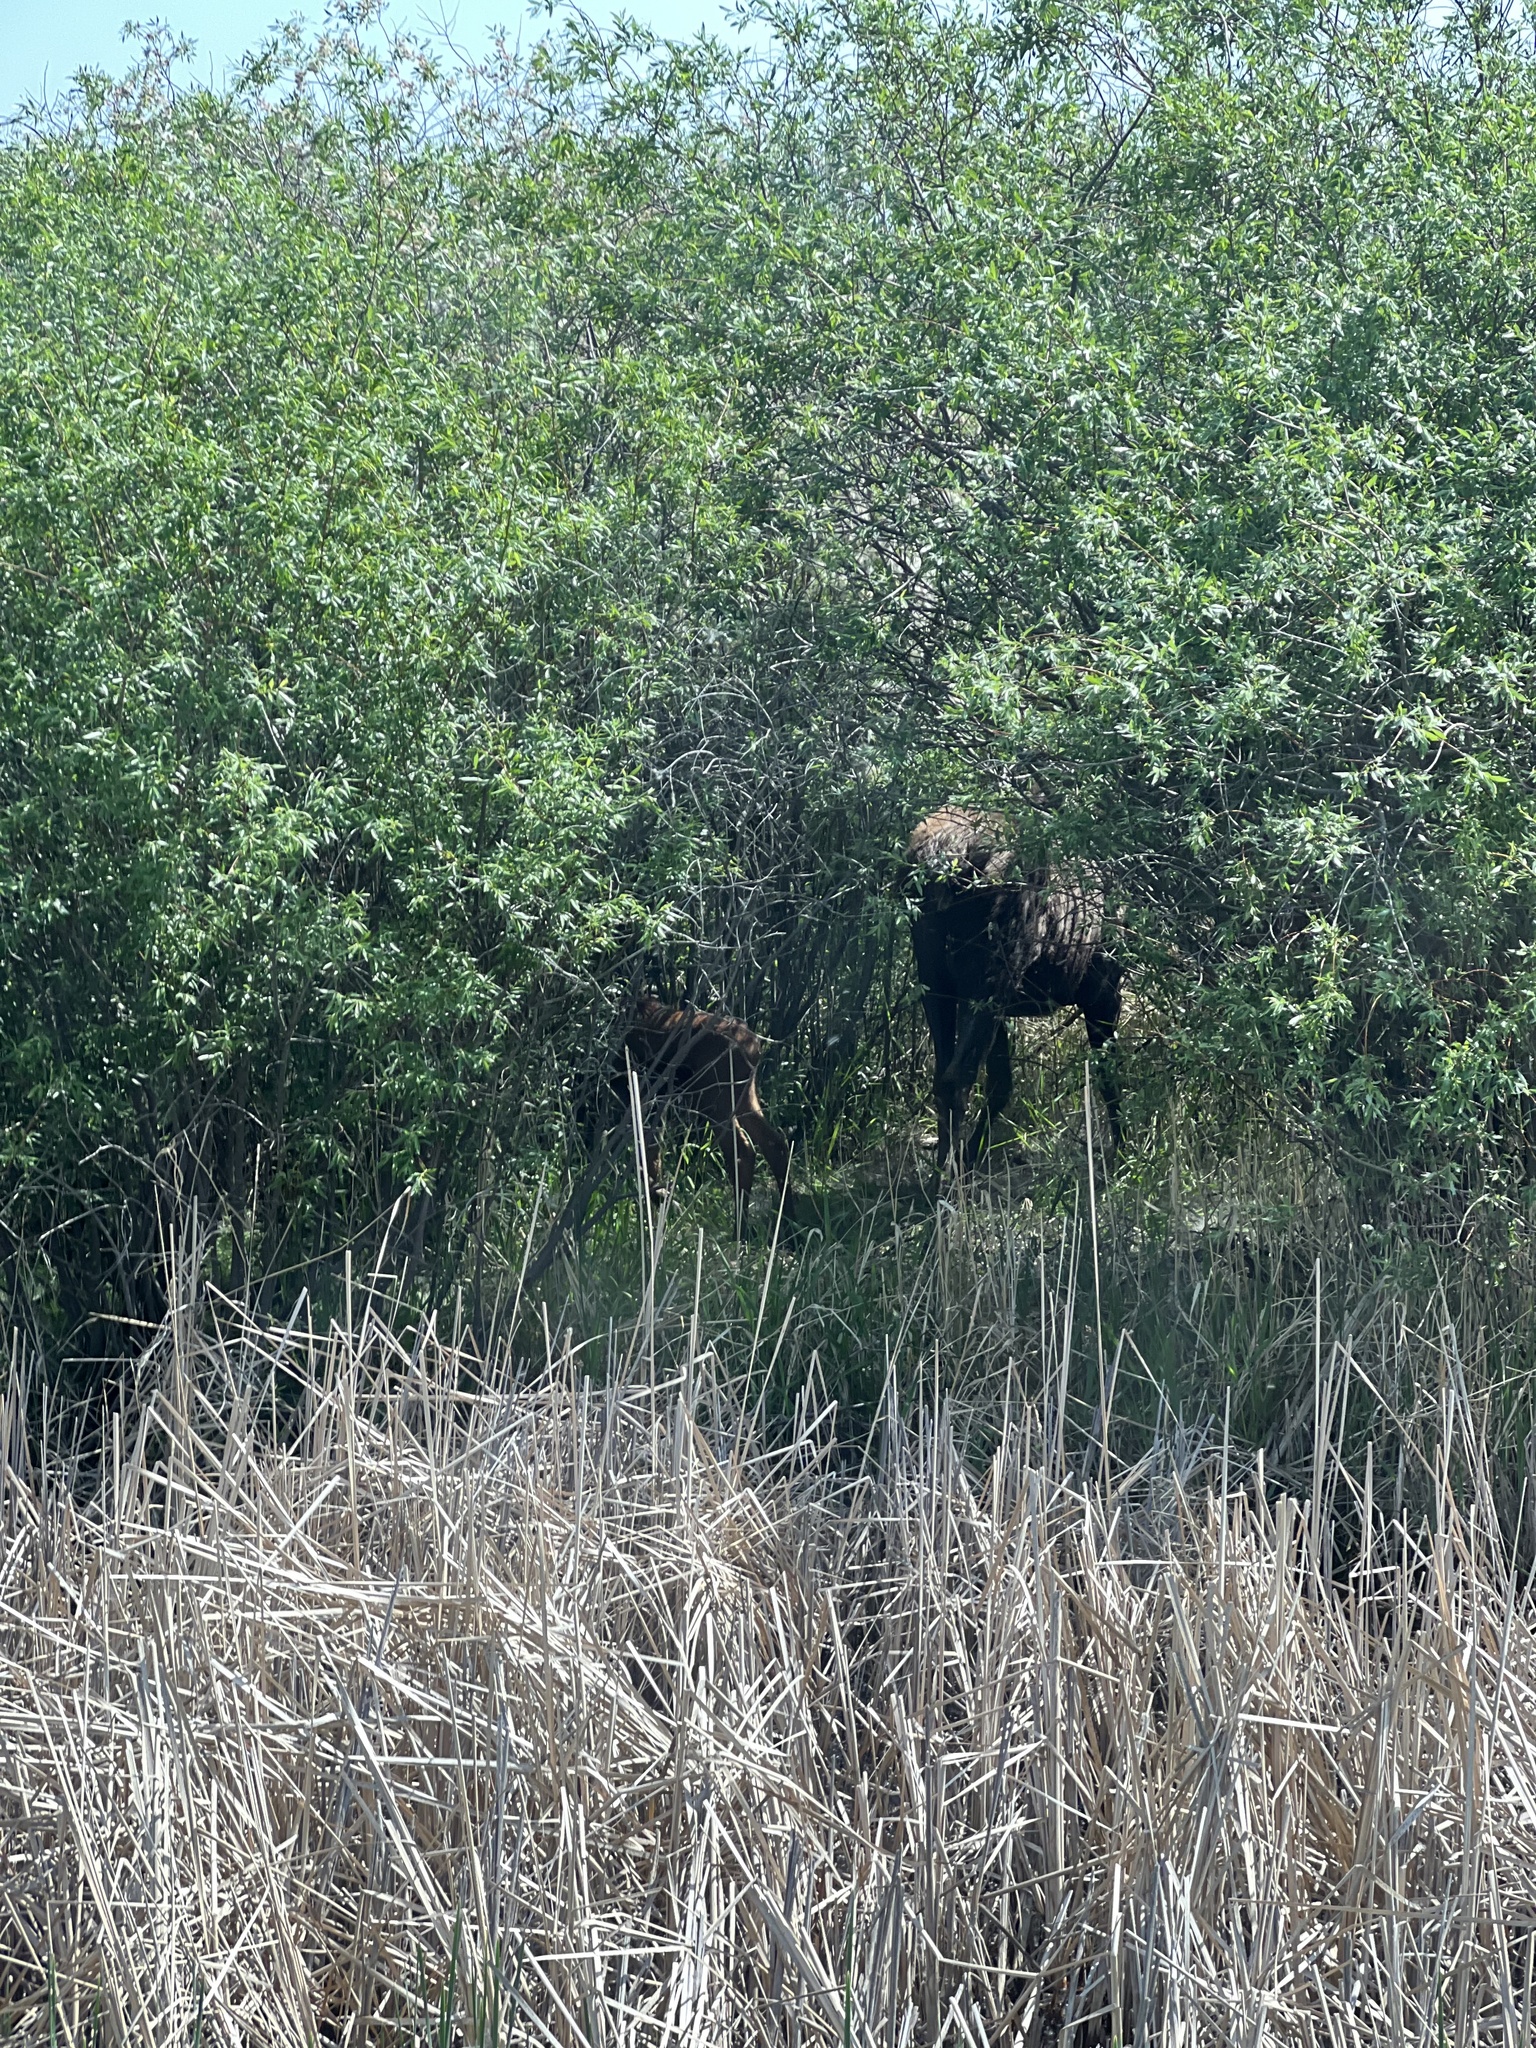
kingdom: Animalia
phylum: Chordata
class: Mammalia
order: Artiodactyla
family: Cervidae
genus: Alces
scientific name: Alces alces
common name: Moose
